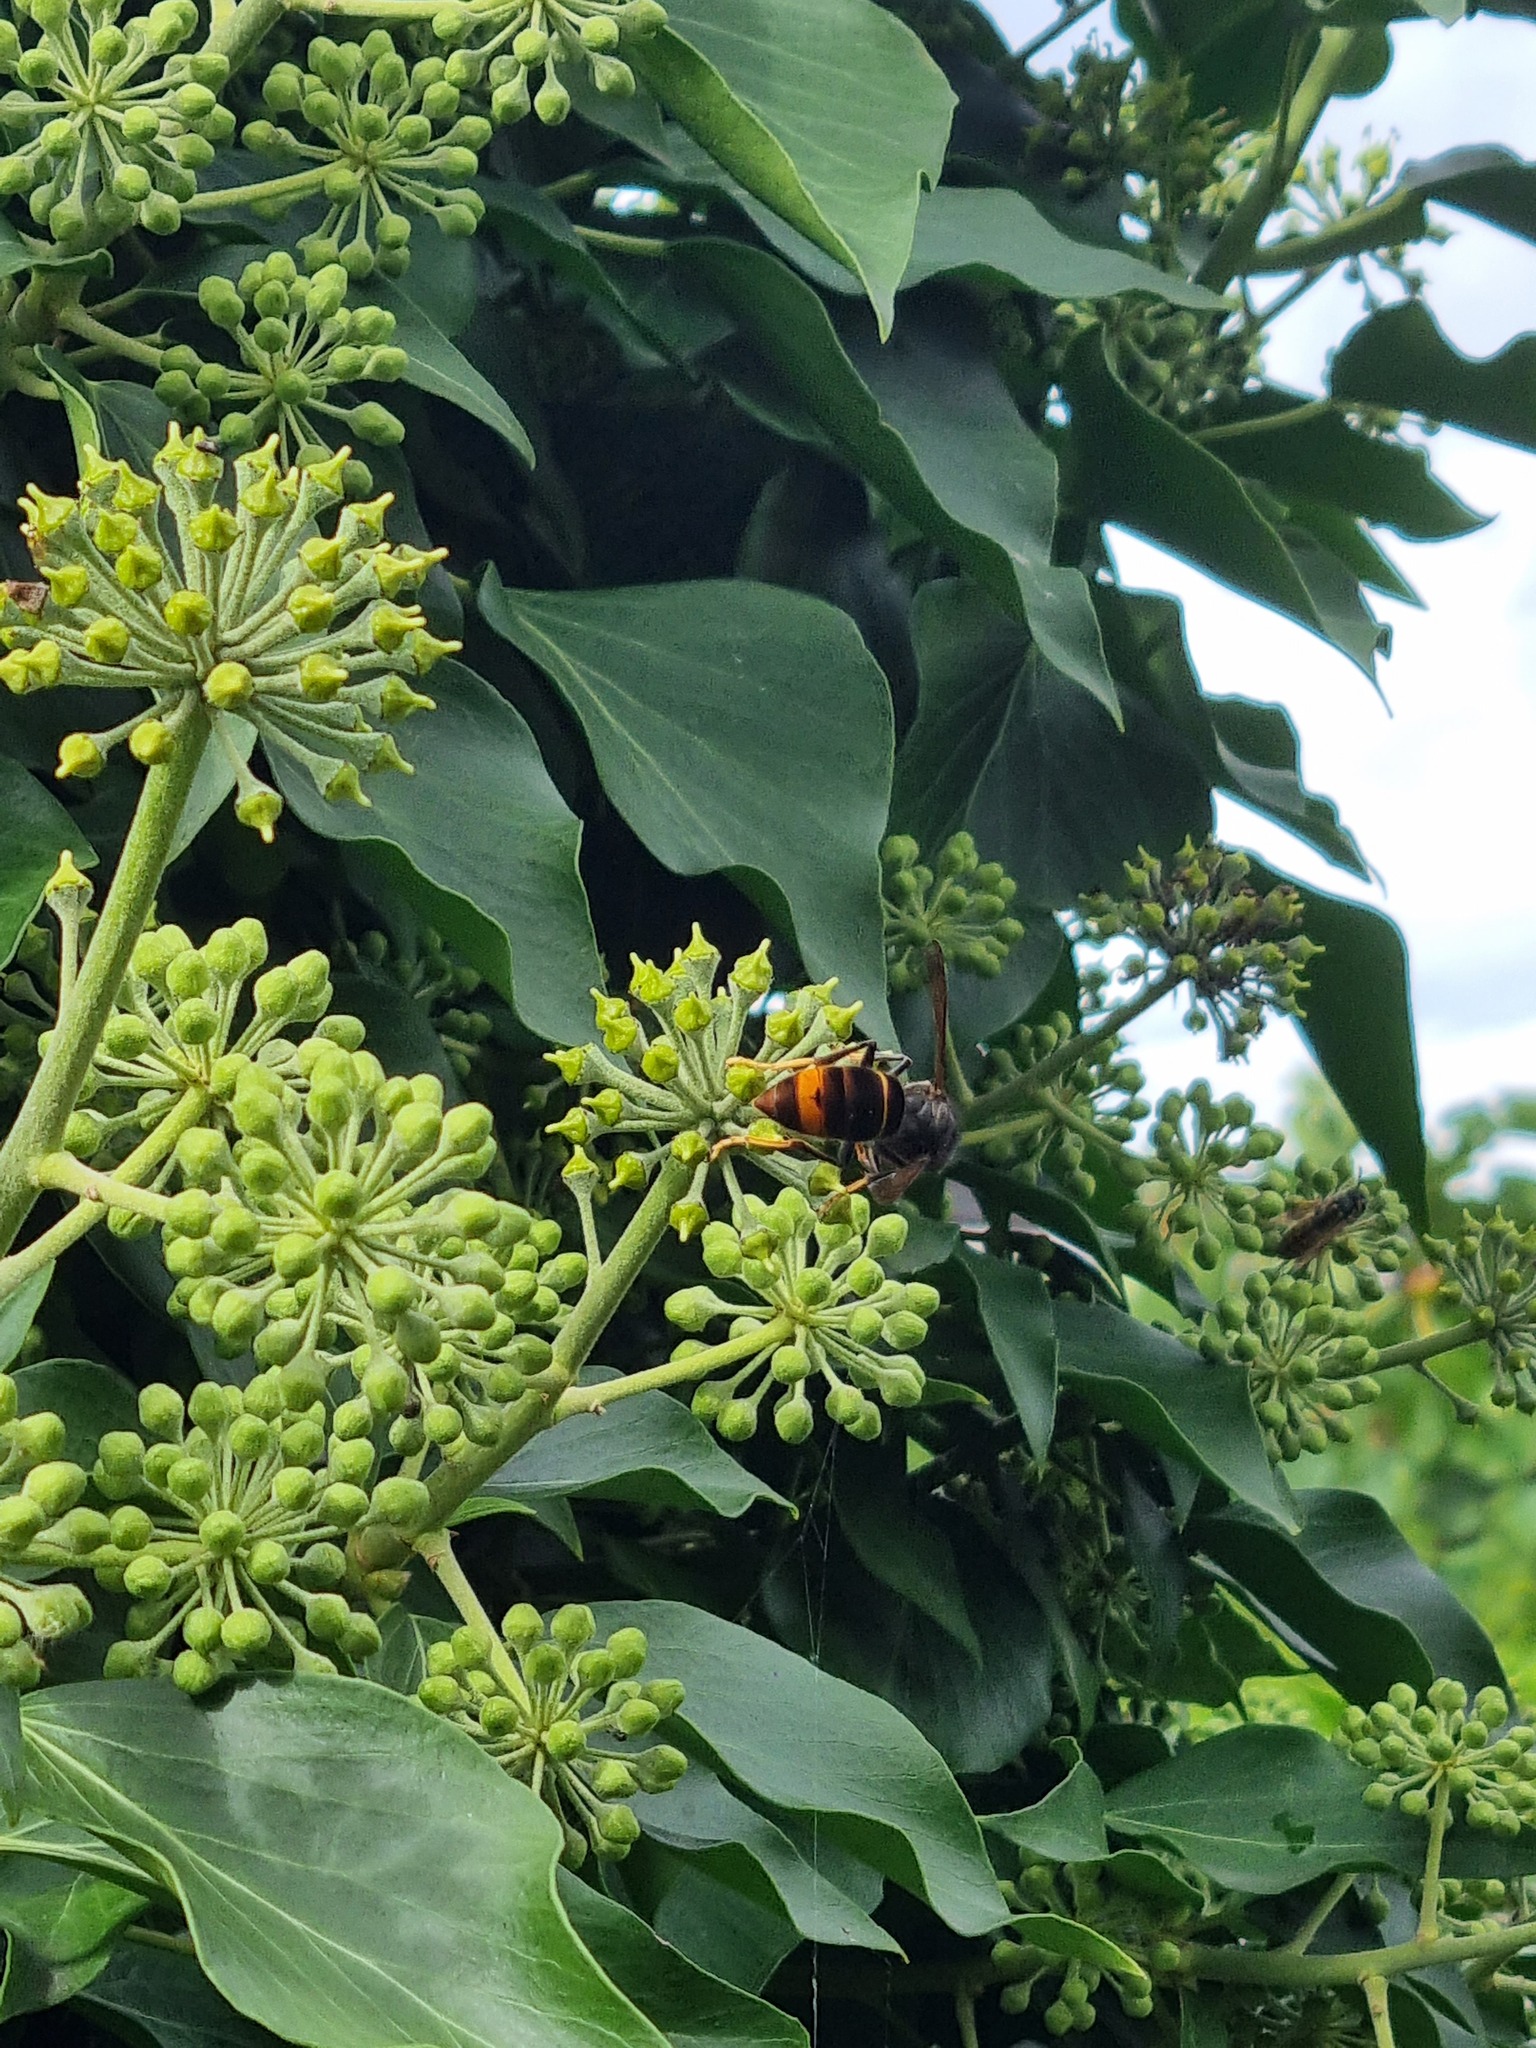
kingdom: Animalia
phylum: Arthropoda
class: Insecta
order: Hymenoptera
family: Vespidae
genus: Vespa
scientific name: Vespa velutina
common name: Asian hornet
